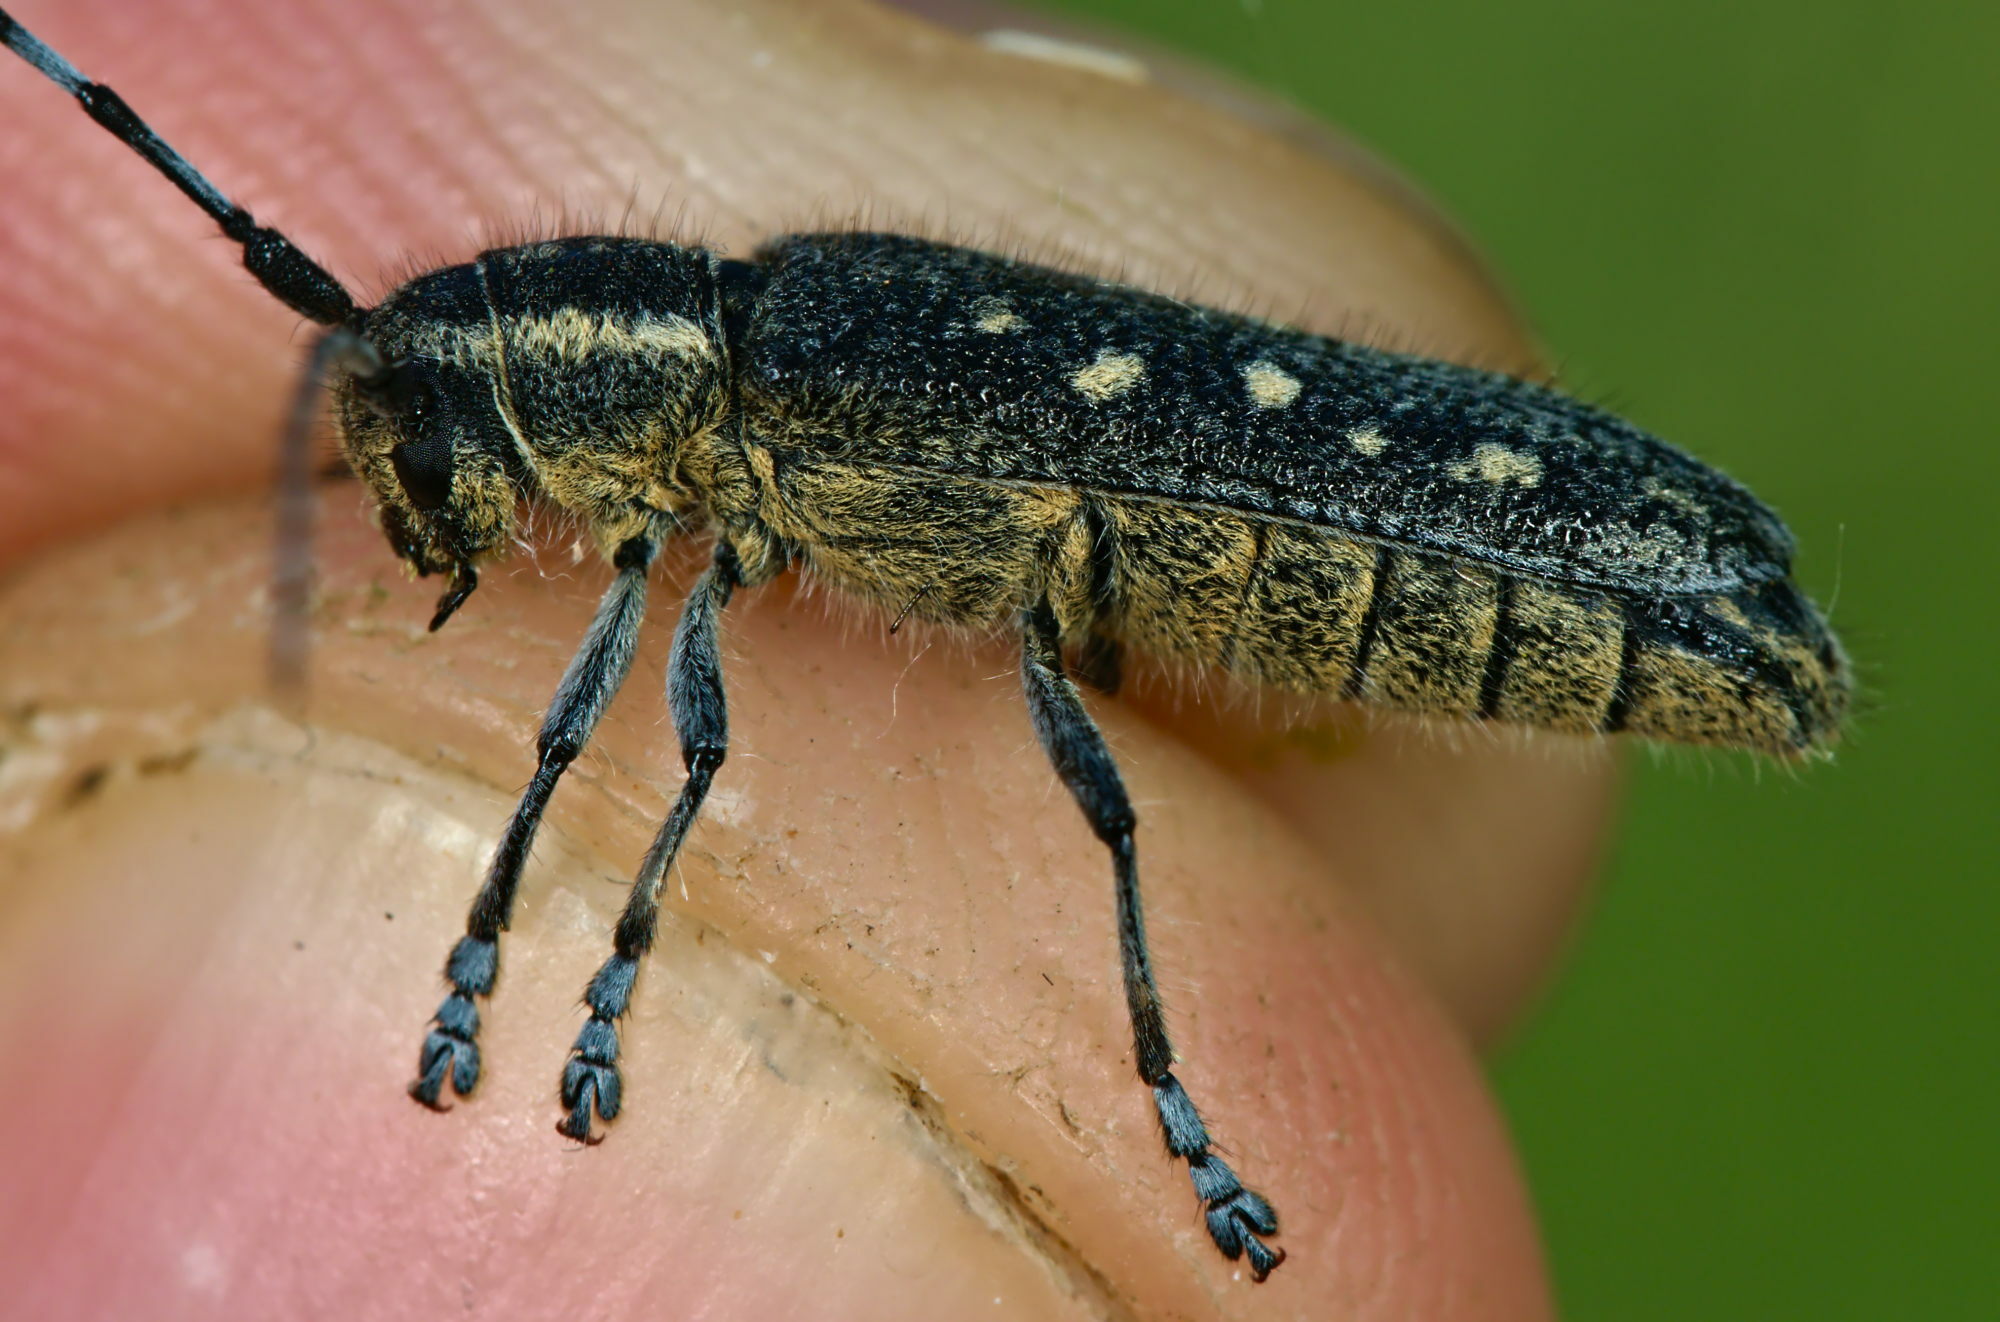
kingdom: Animalia
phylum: Arthropoda
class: Insecta
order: Coleoptera
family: Cerambycidae
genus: Saperda
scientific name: Saperda populnea
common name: Small poplar borer
